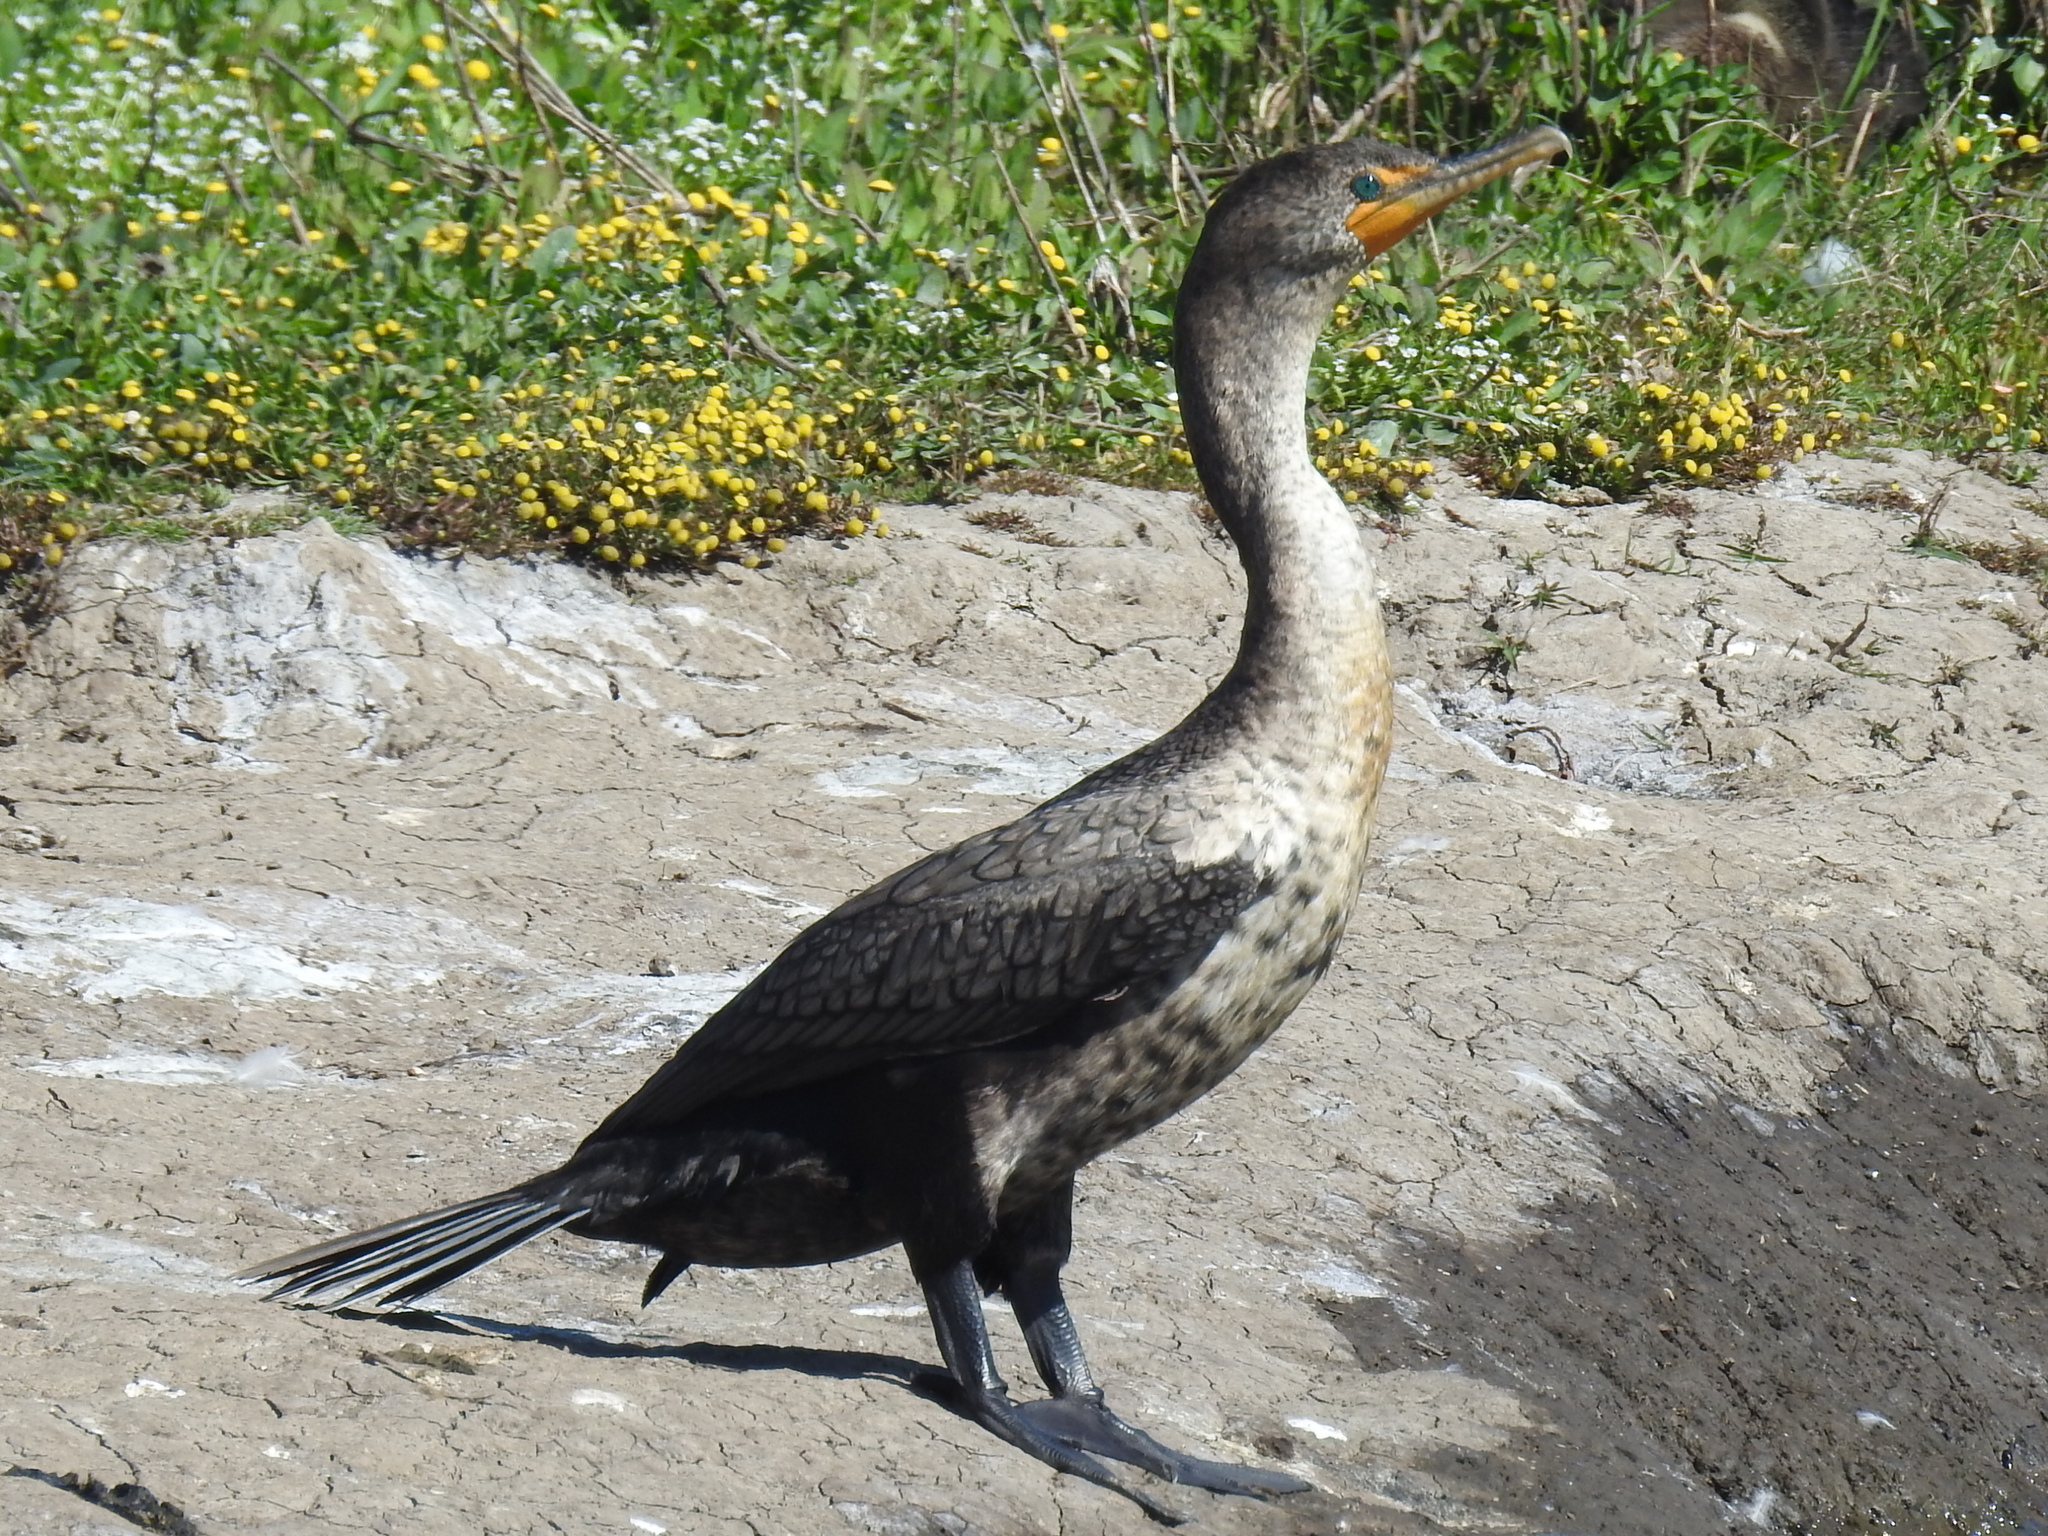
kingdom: Animalia
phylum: Chordata
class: Aves
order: Suliformes
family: Phalacrocoracidae
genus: Phalacrocorax
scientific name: Phalacrocorax auritus
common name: Double-crested cormorant
